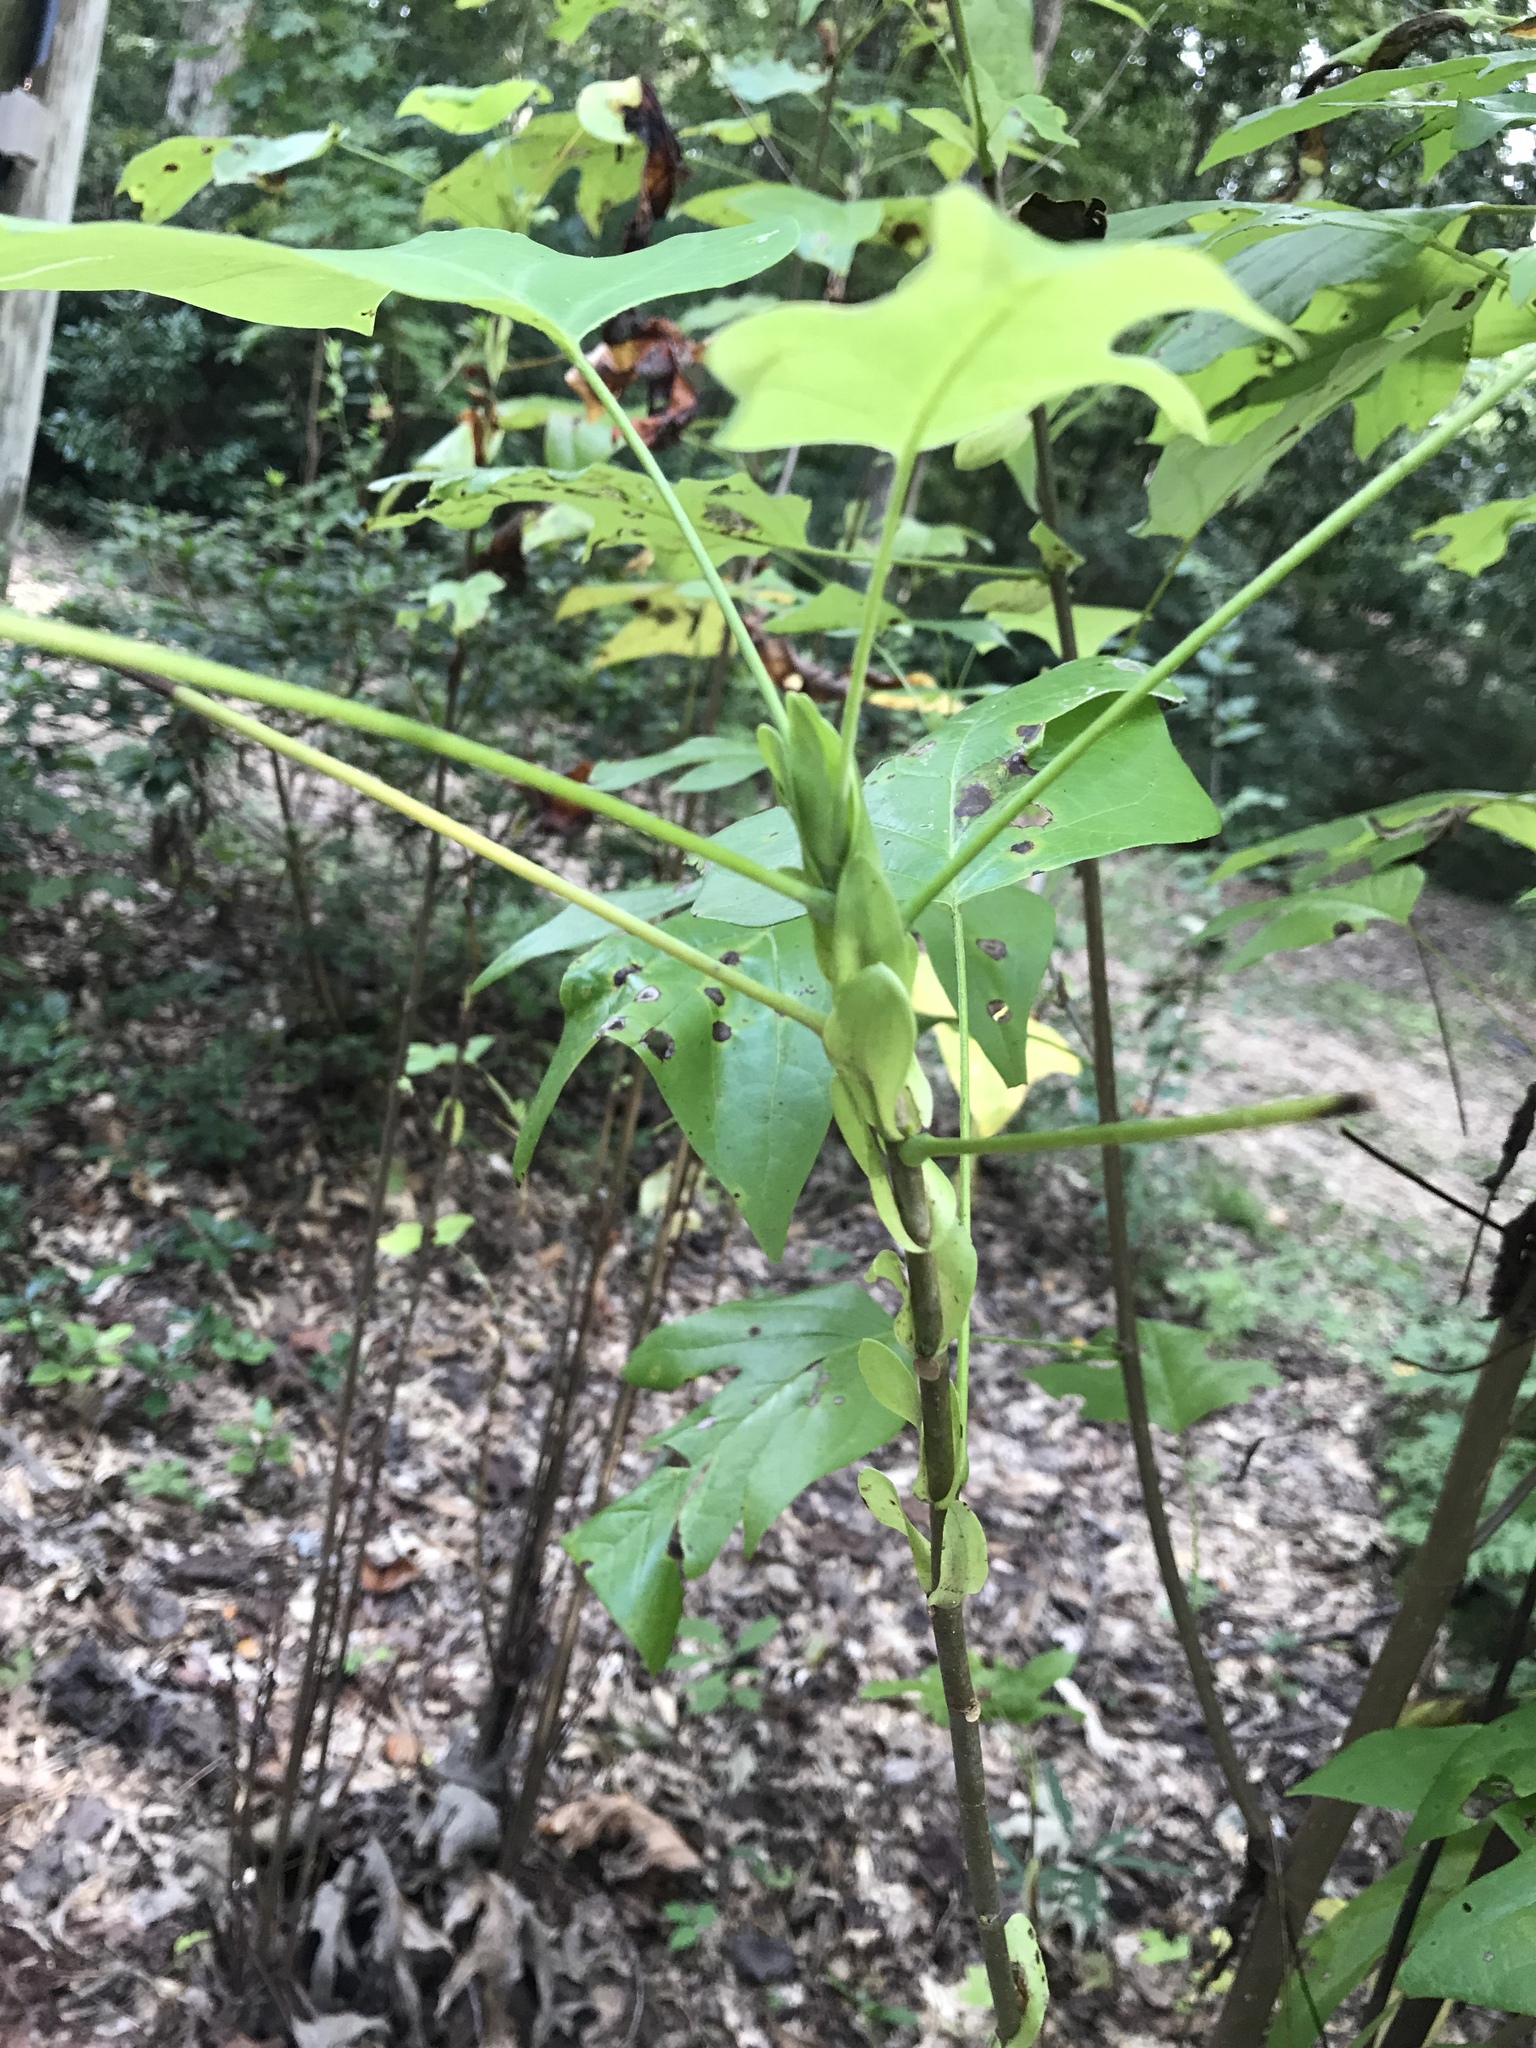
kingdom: Plantae
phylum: Tracheophyta
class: Magnoliopsida
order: Magnoliales
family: Magnoliaceae
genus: Liriodendron
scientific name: Liriodendron tulipifera
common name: Tulip tree
